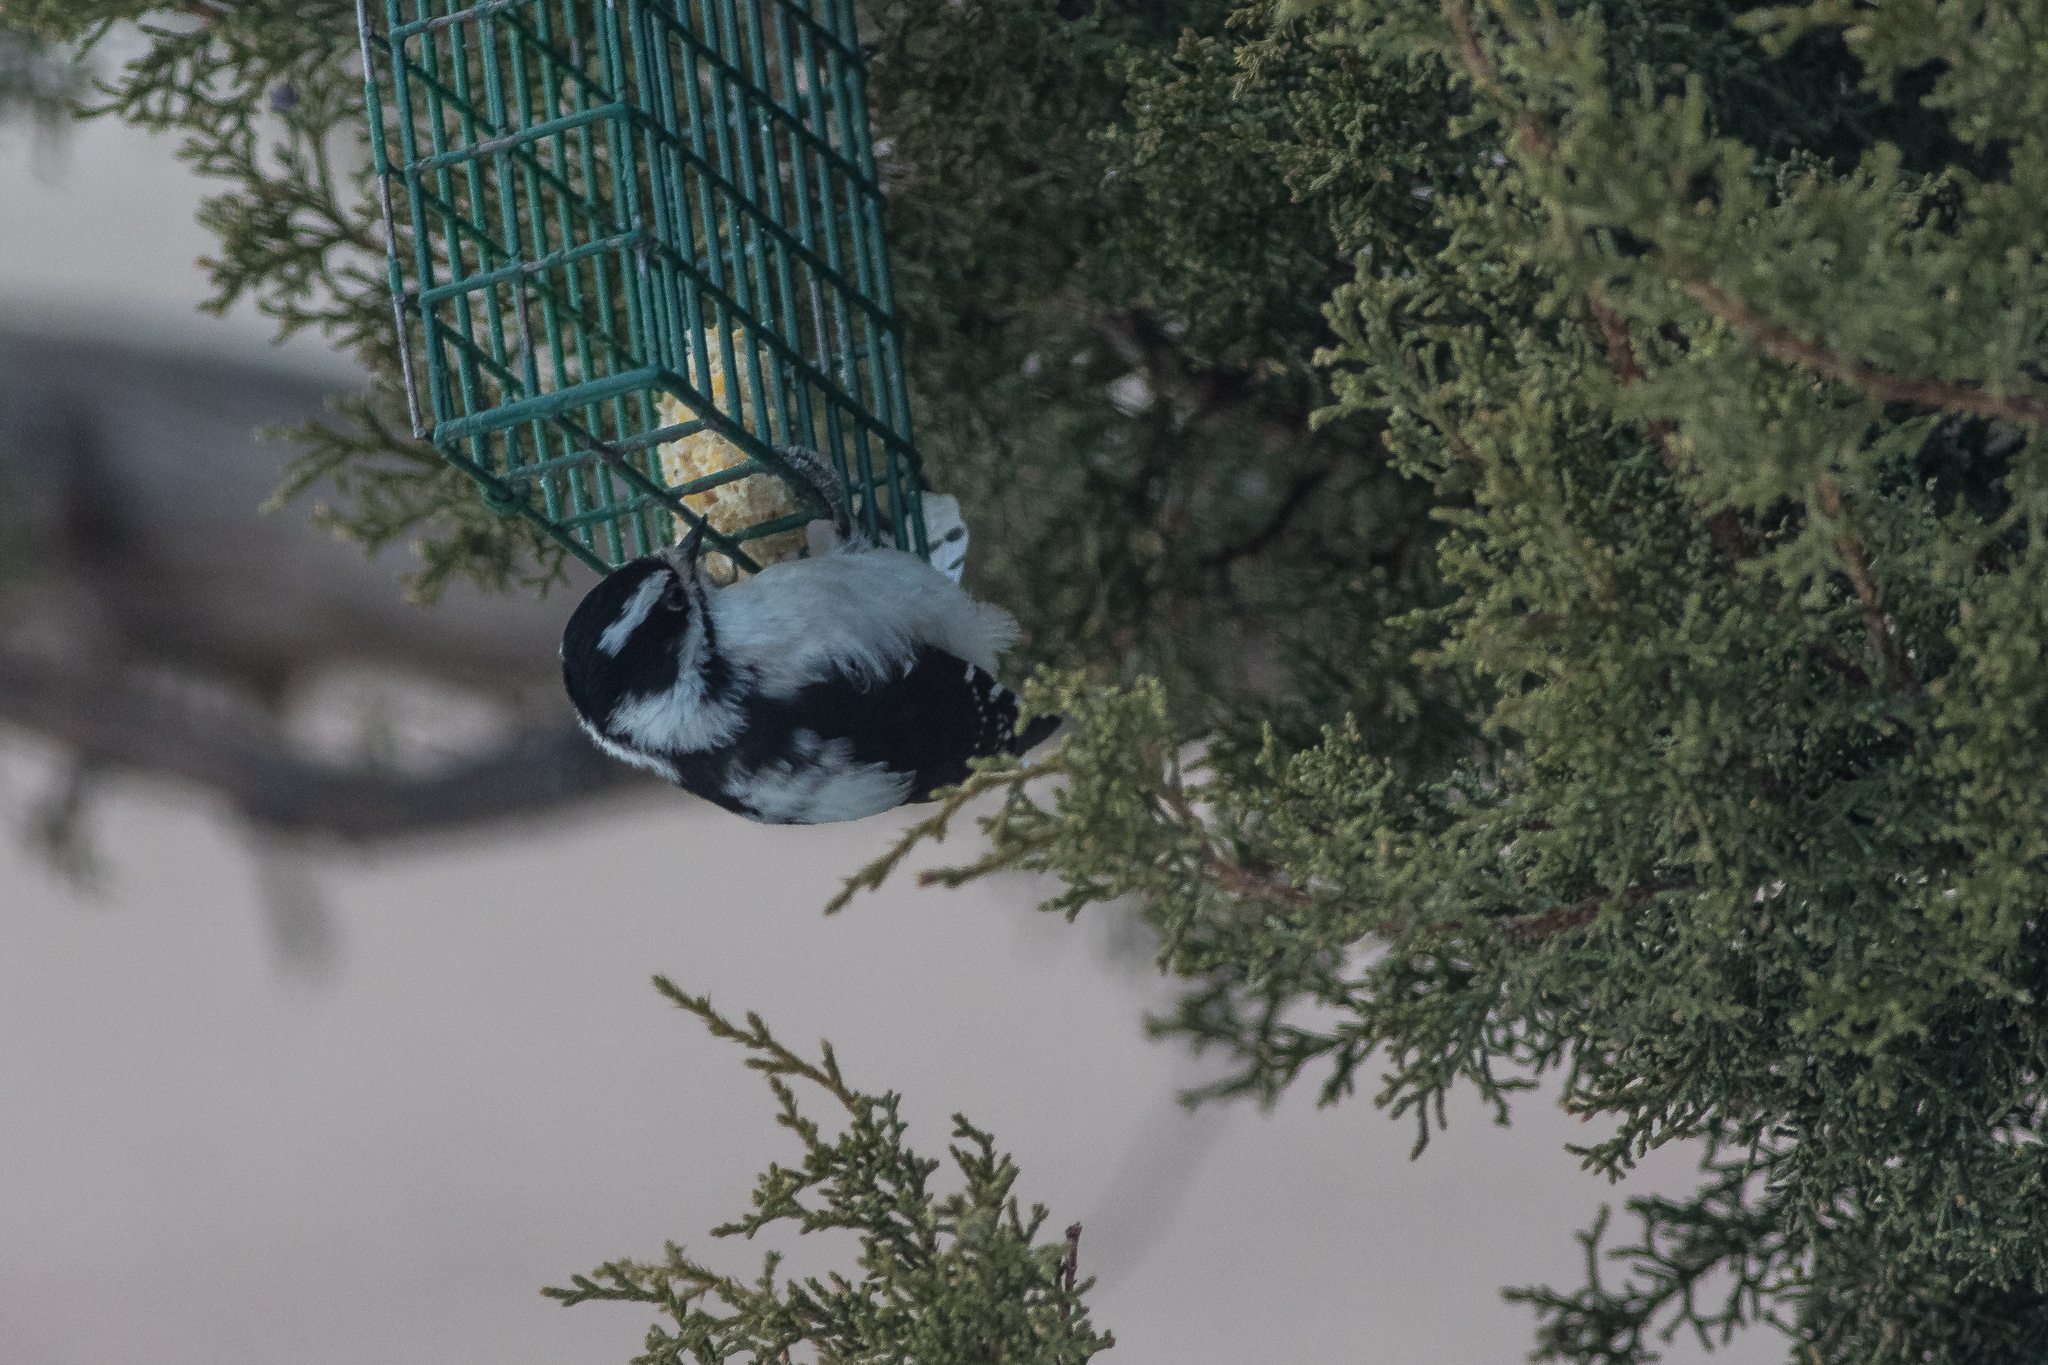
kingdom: Animalia
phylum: Chordata
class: Aves
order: Piciformes
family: Picidae
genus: Dryobates
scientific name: Dryobates pubescens
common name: Downy woodpecker
